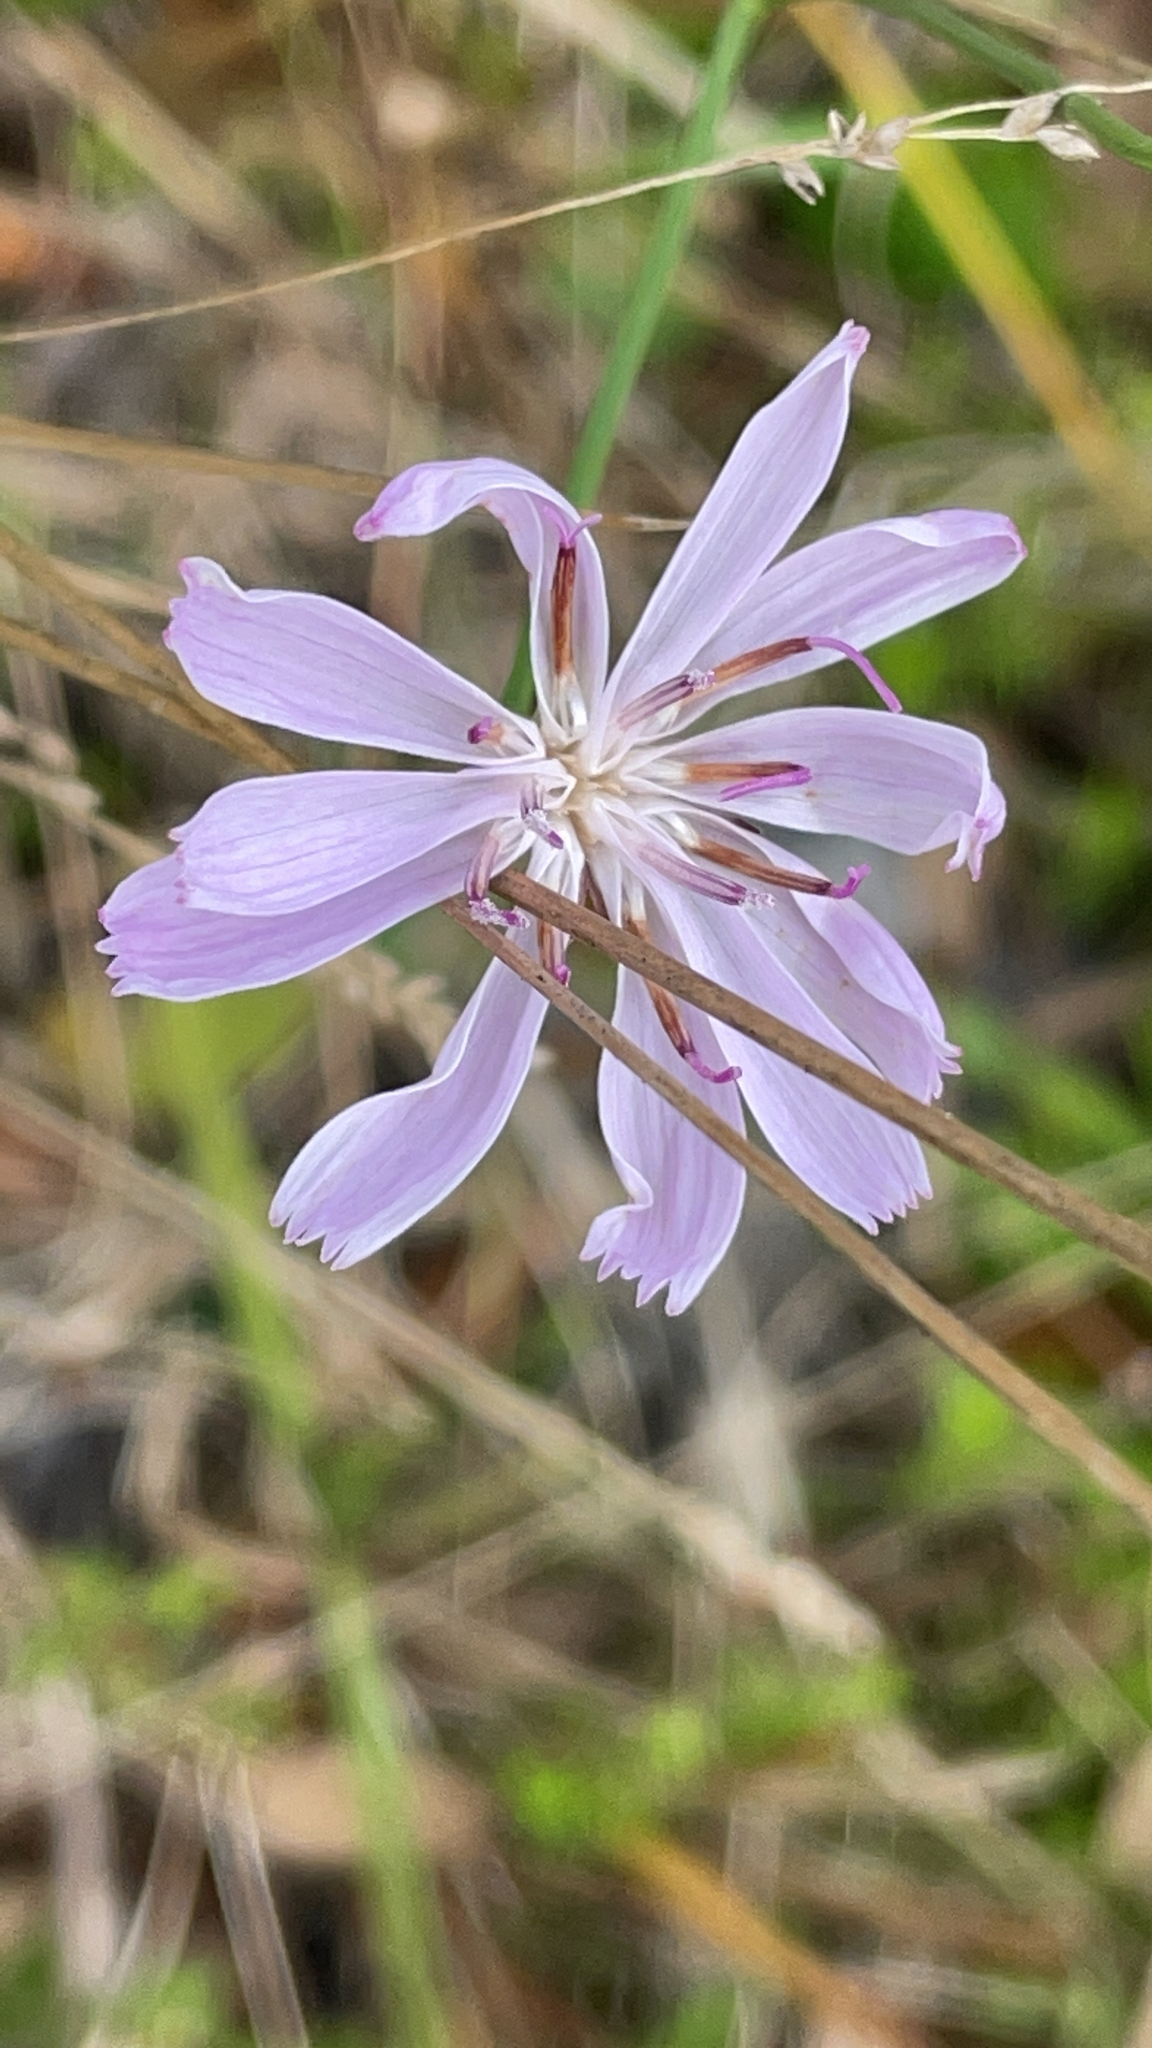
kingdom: Plantae
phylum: Tracheophyta
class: Magnoliopsida
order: Asterales
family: Asteraceae
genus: Lygodesmia
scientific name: Lygodesmia aphylla
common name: Rose-rush
